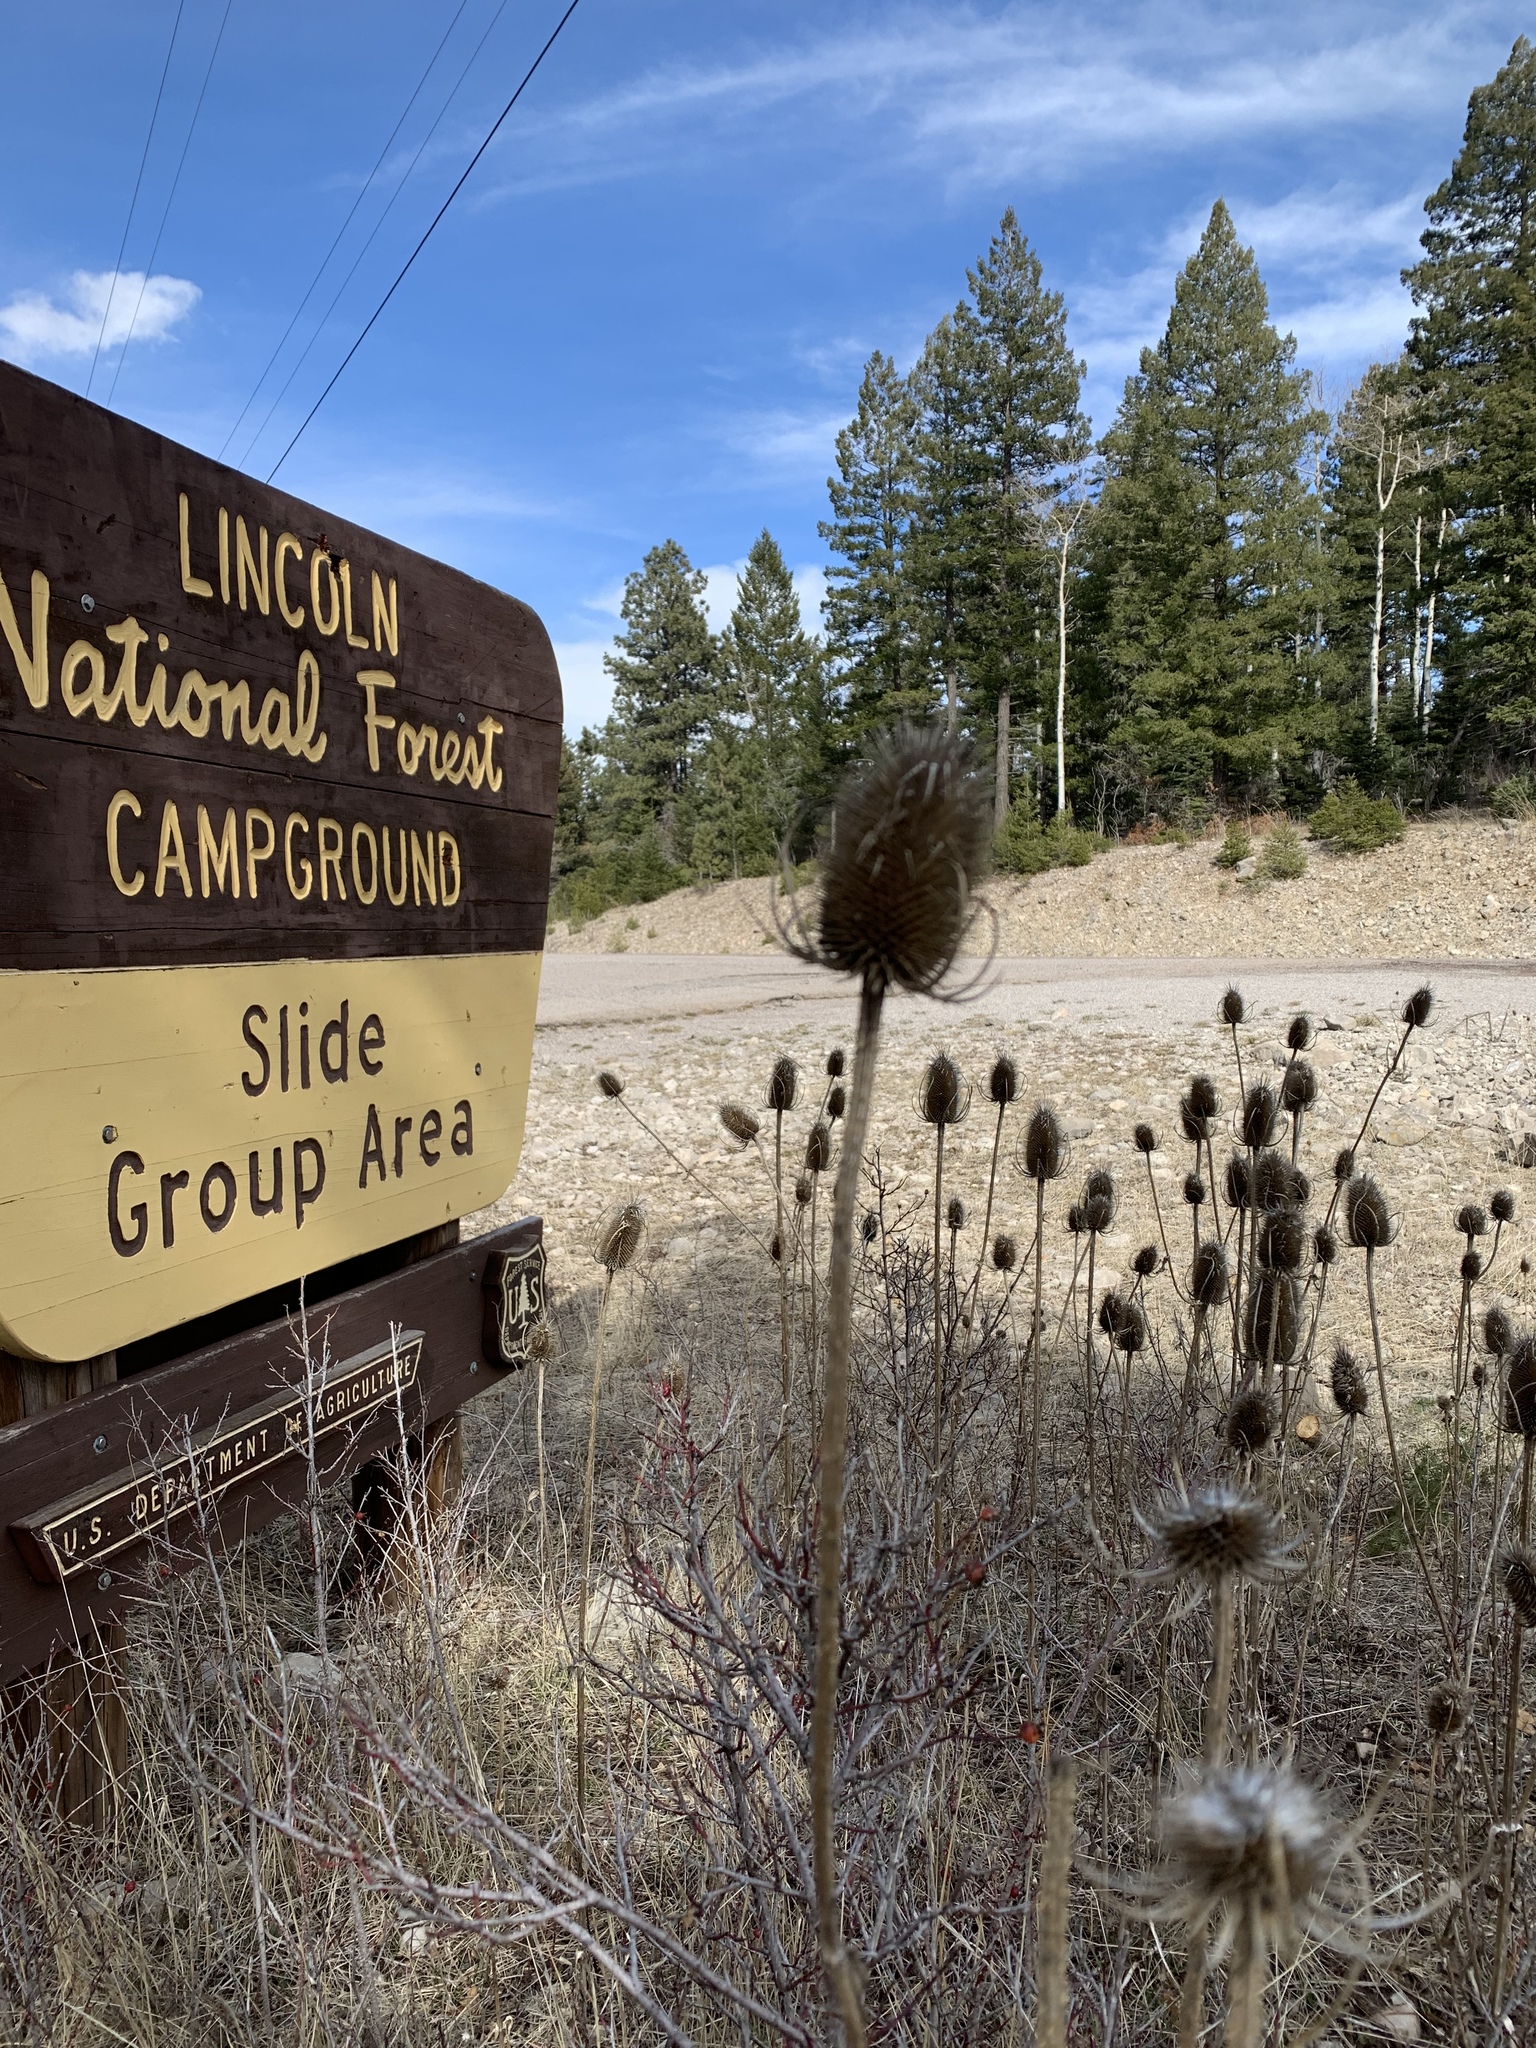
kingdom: Plantae
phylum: Tracheophyta
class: Magnoliopsida
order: Dipsacales
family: Caprifoliaceae
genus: Dipsacus
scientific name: Dipsacus fullonum
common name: Teasel
